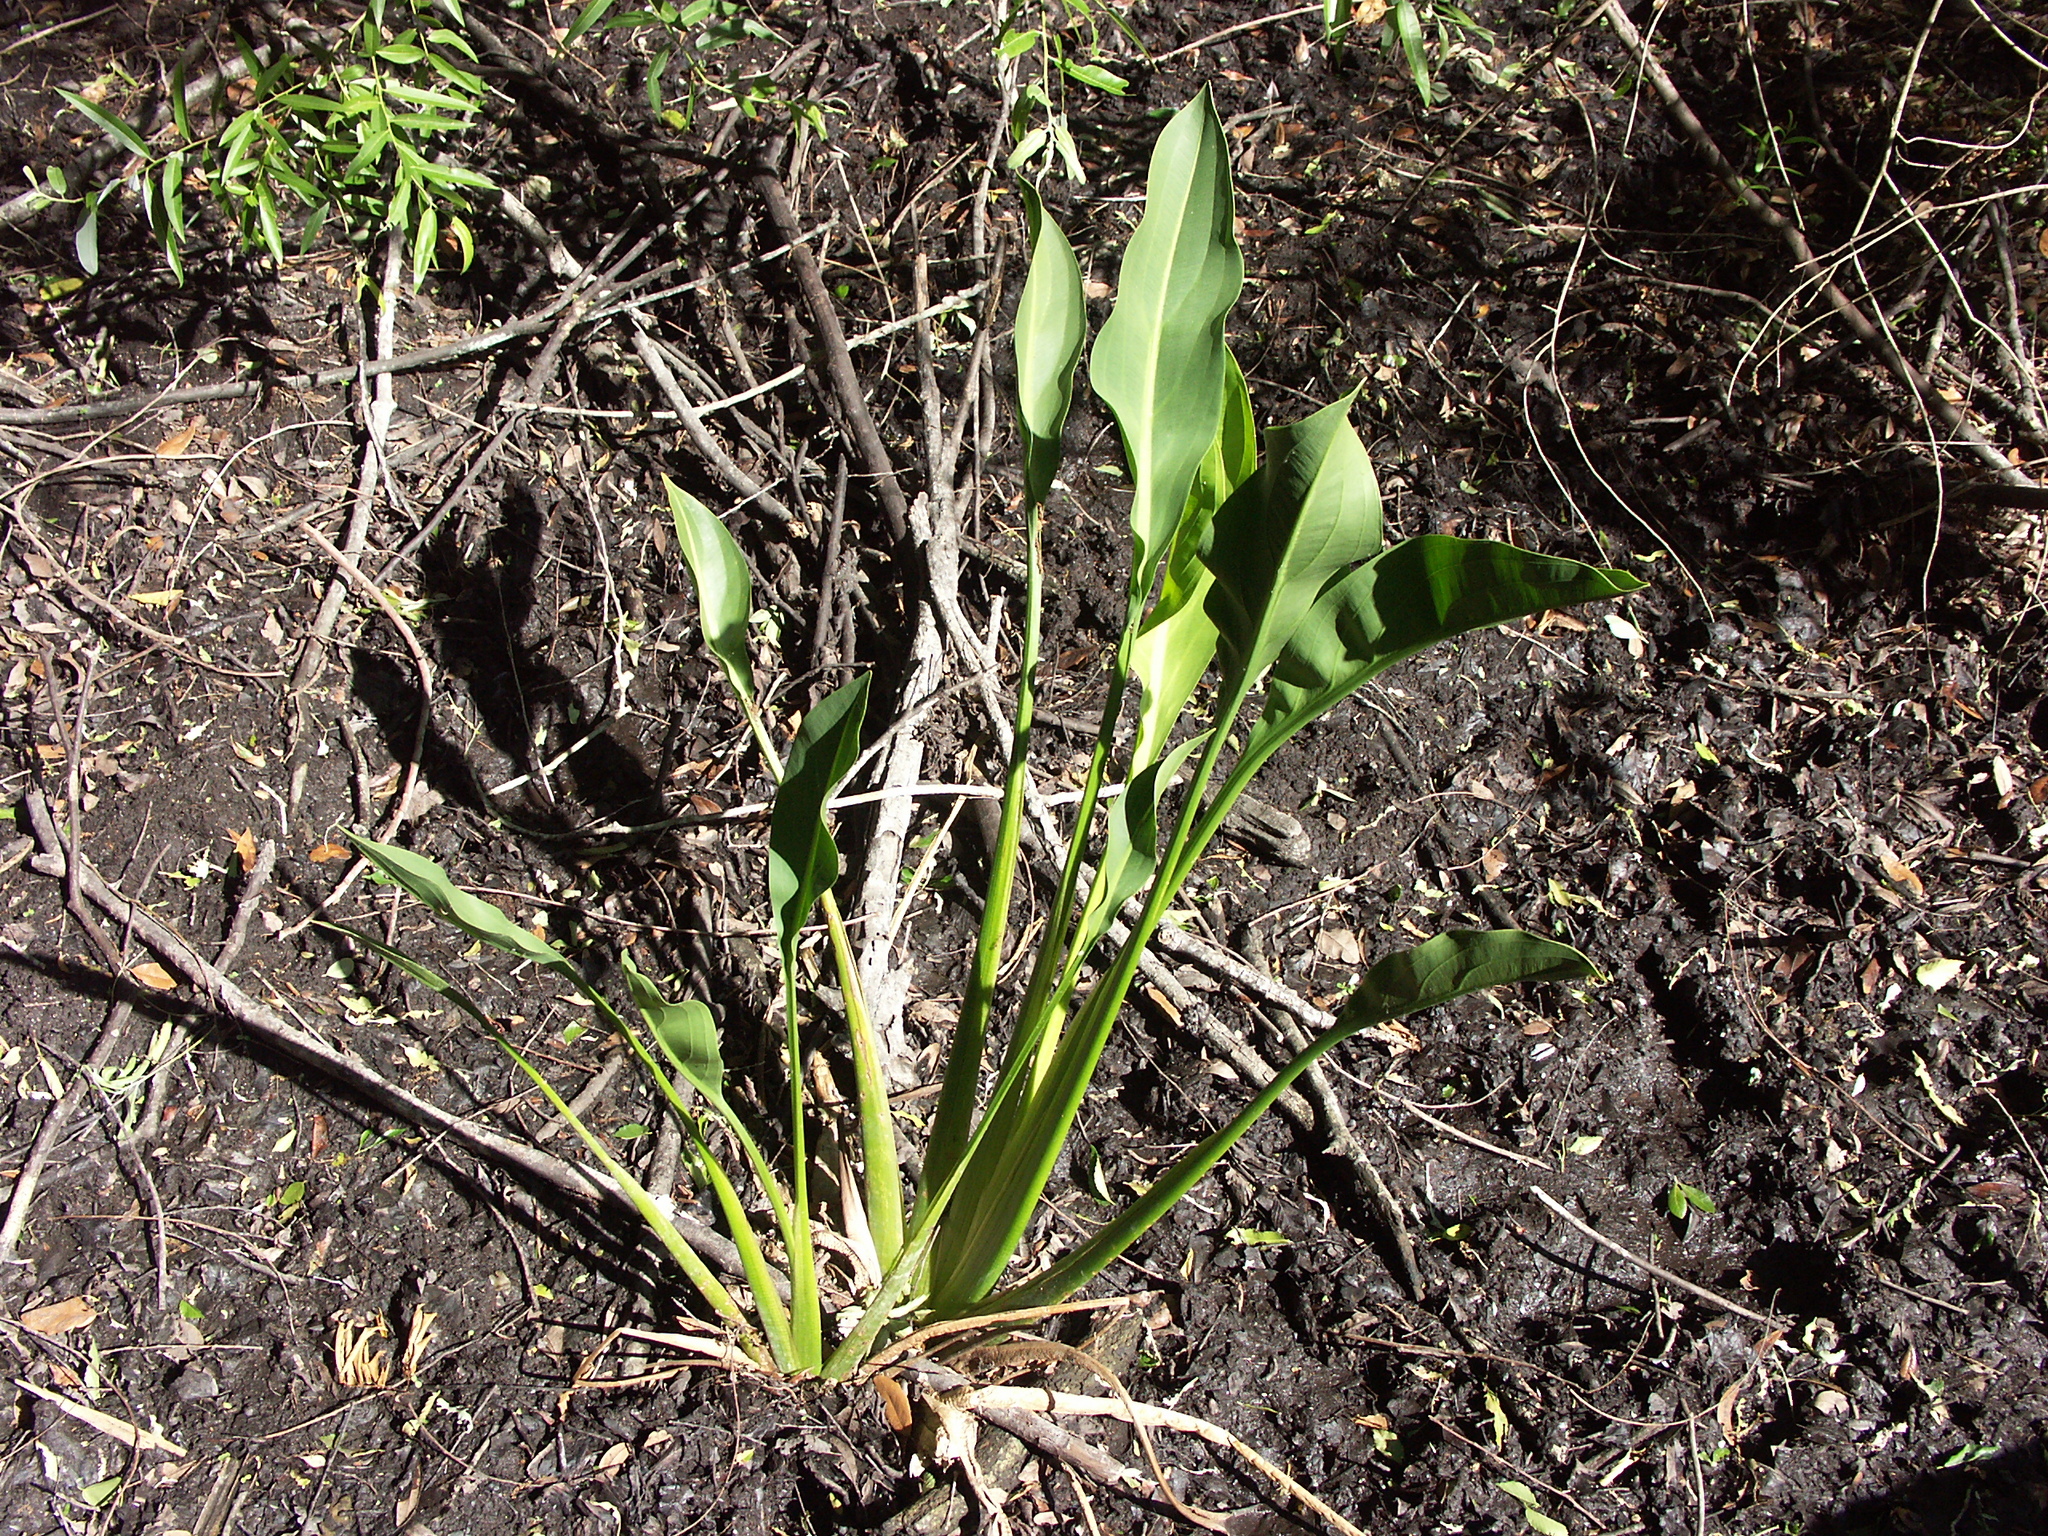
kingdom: Plantae
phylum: Tracheophyta
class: Liliopsida
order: Alismatales
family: Alismataceae
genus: Sagittaria
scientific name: Sagittaria lancifolia
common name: Lance-leaf arrowhead
